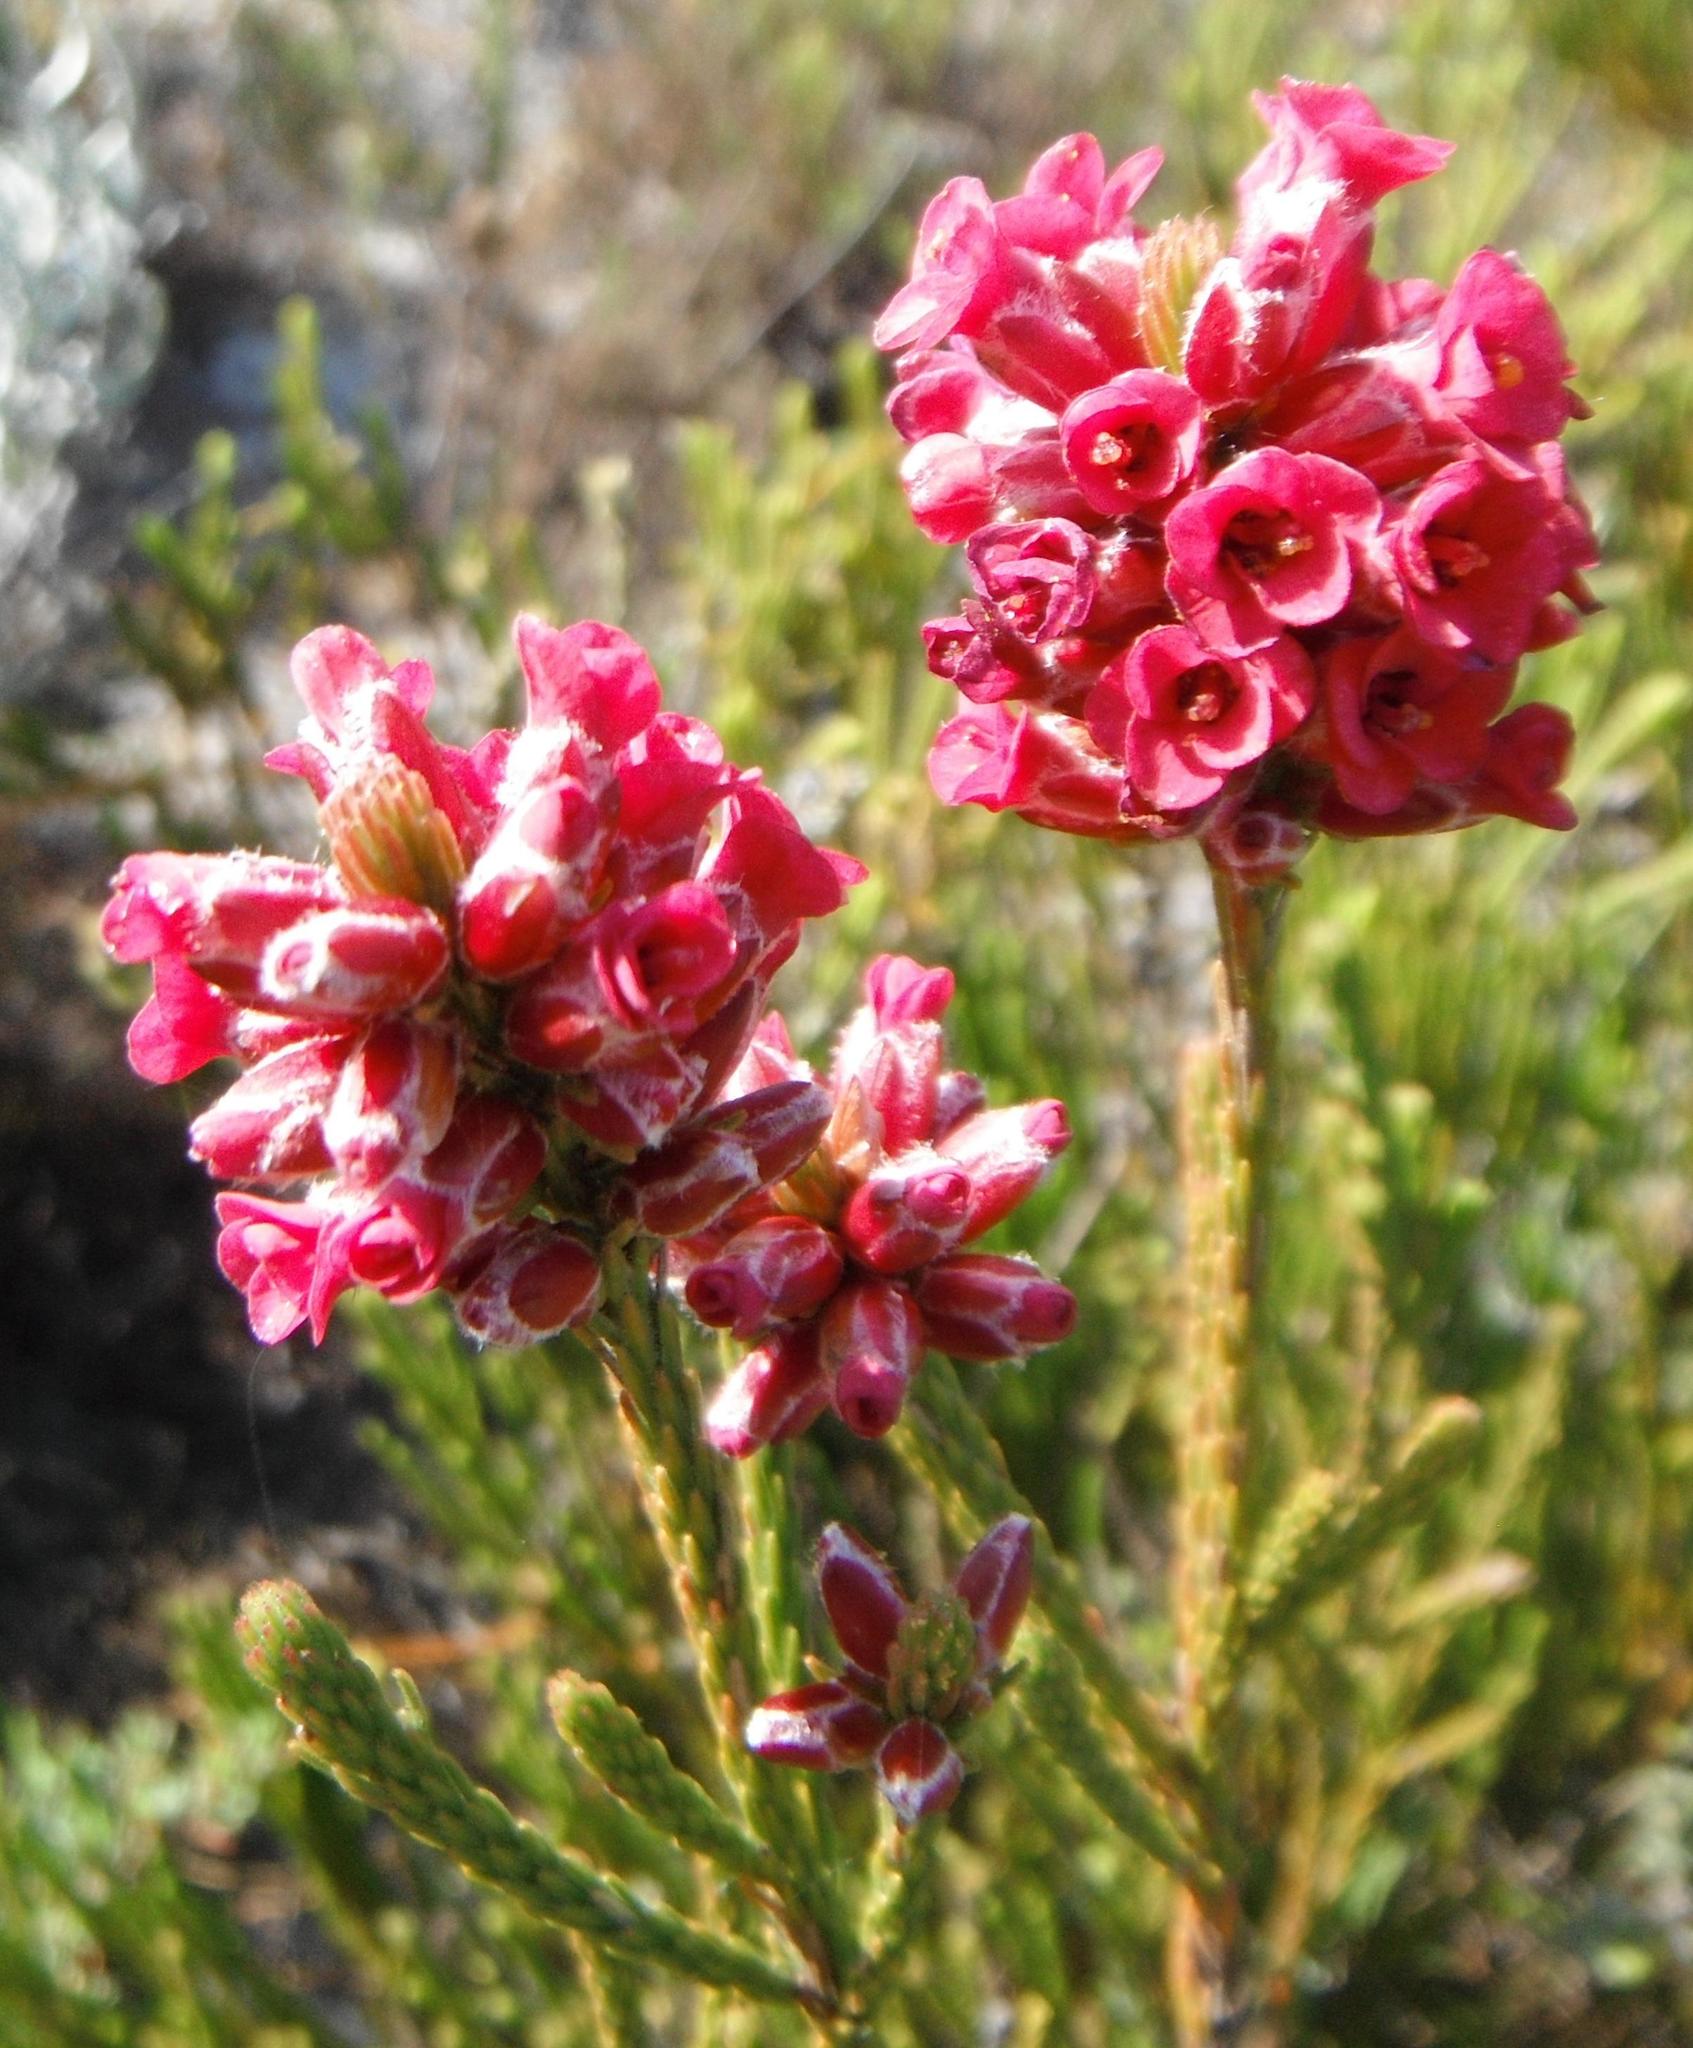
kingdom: Plantae
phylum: Tracheophyta
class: Magnoliopsida
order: Bruniales
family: Bruniaceae
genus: Audouinia
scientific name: Audouinia capitata
